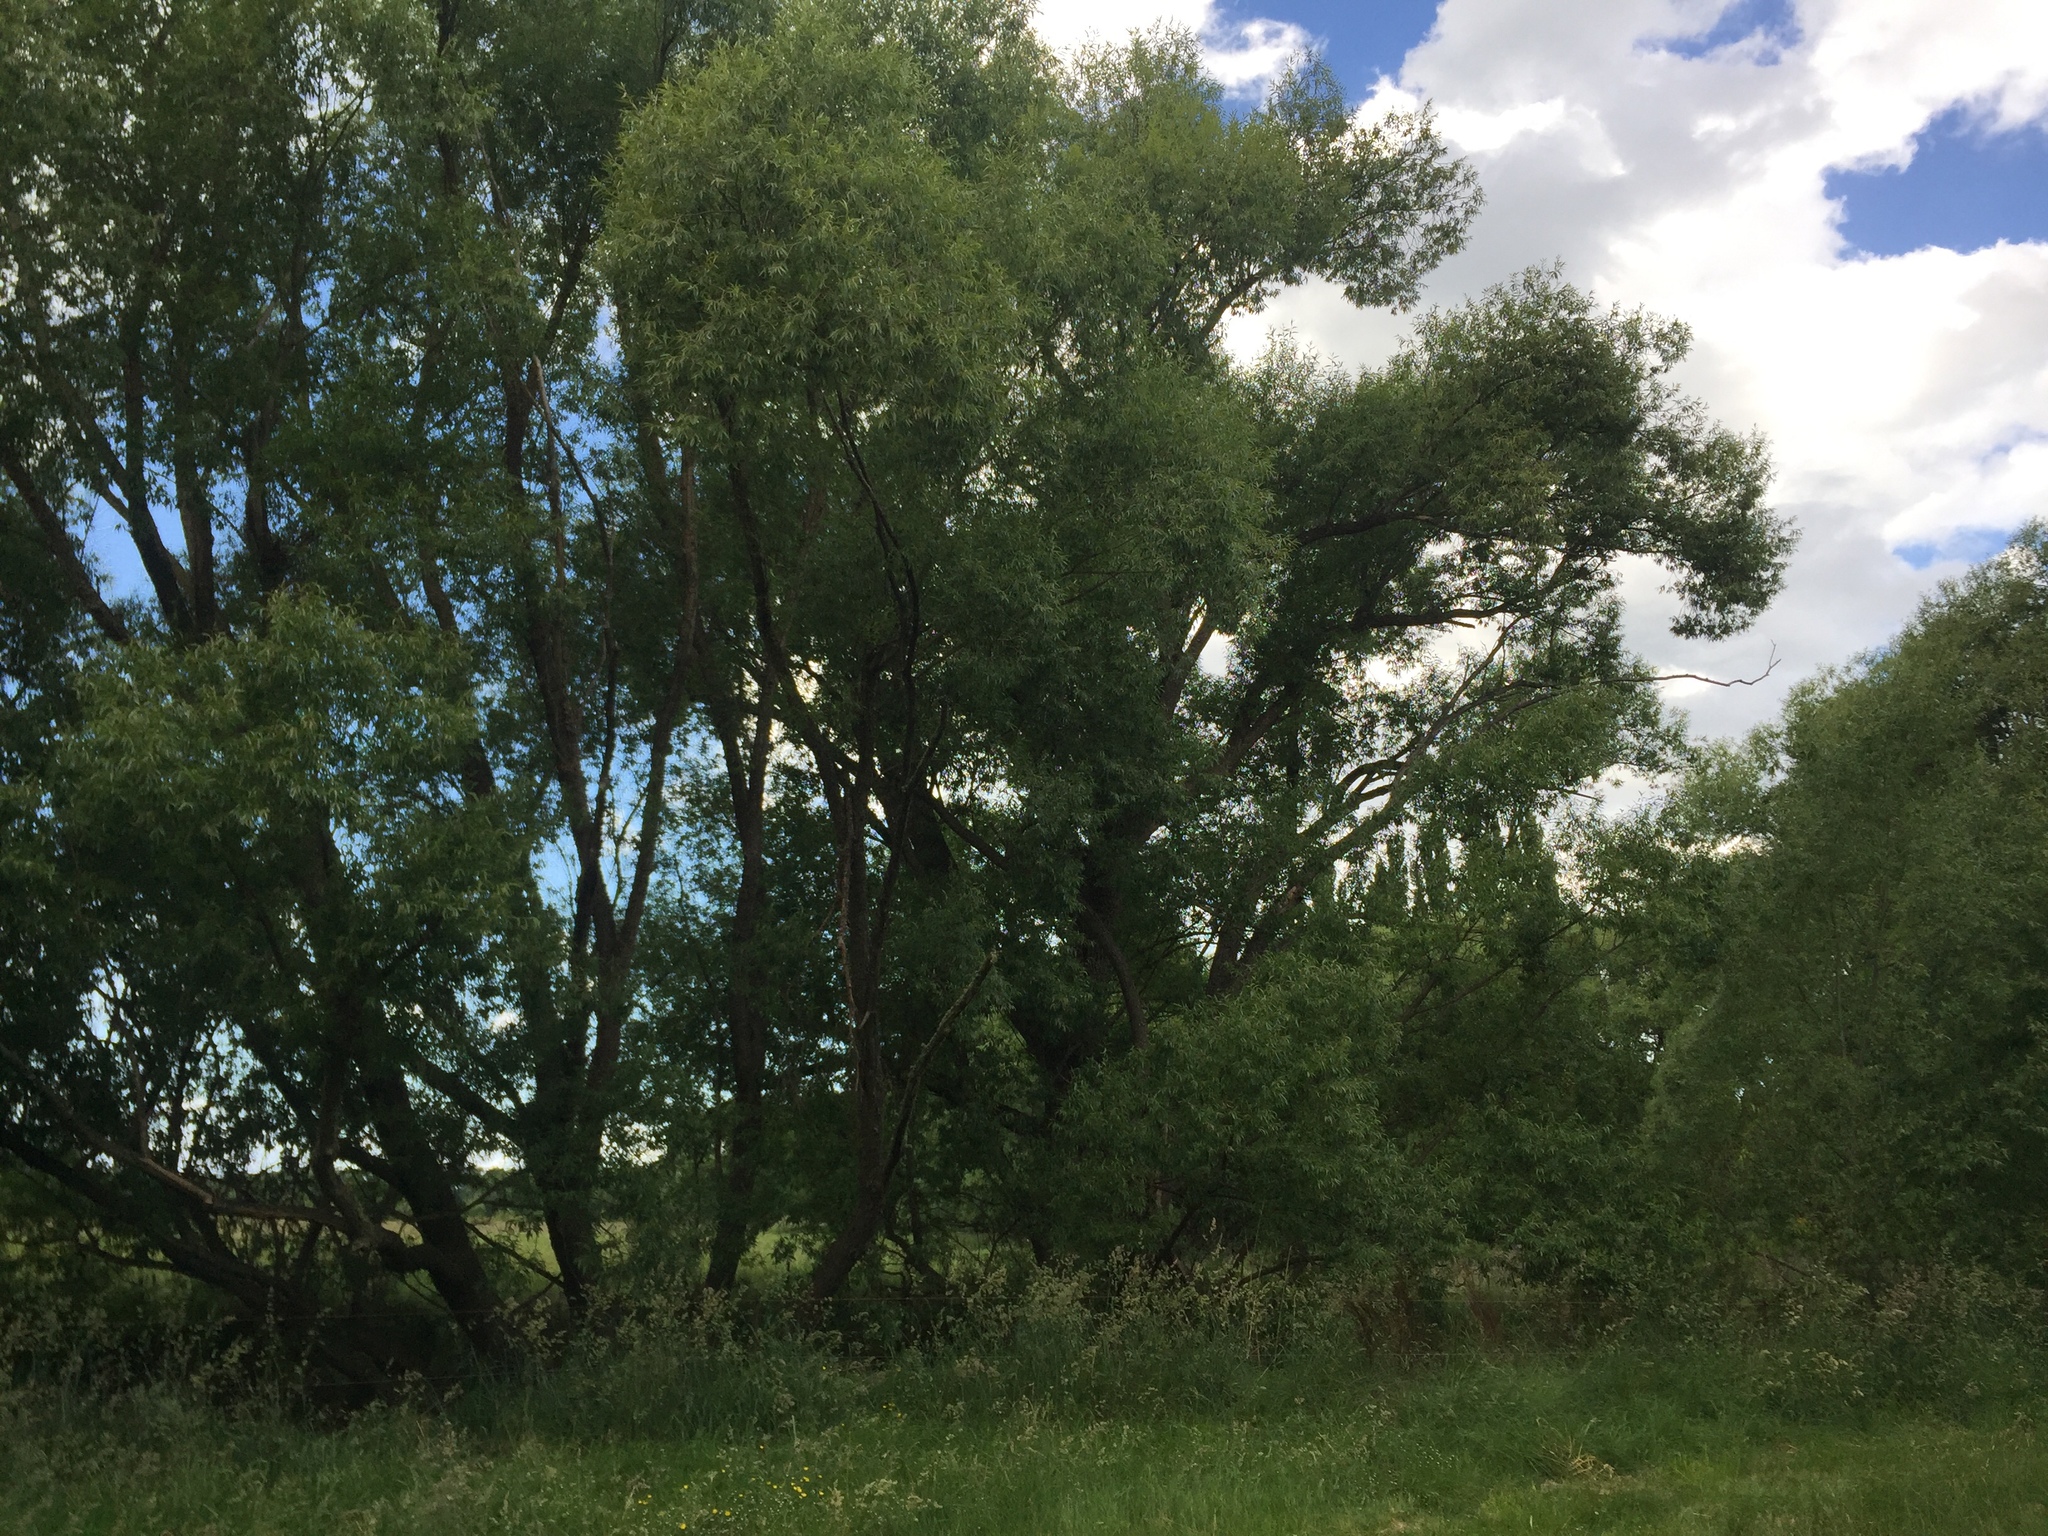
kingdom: Plantae
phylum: Tracheophyta
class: Magnoliopsida
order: Malpighiales
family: Salicaceae
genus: Salix
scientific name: Salix fragilis
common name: Crack willow
